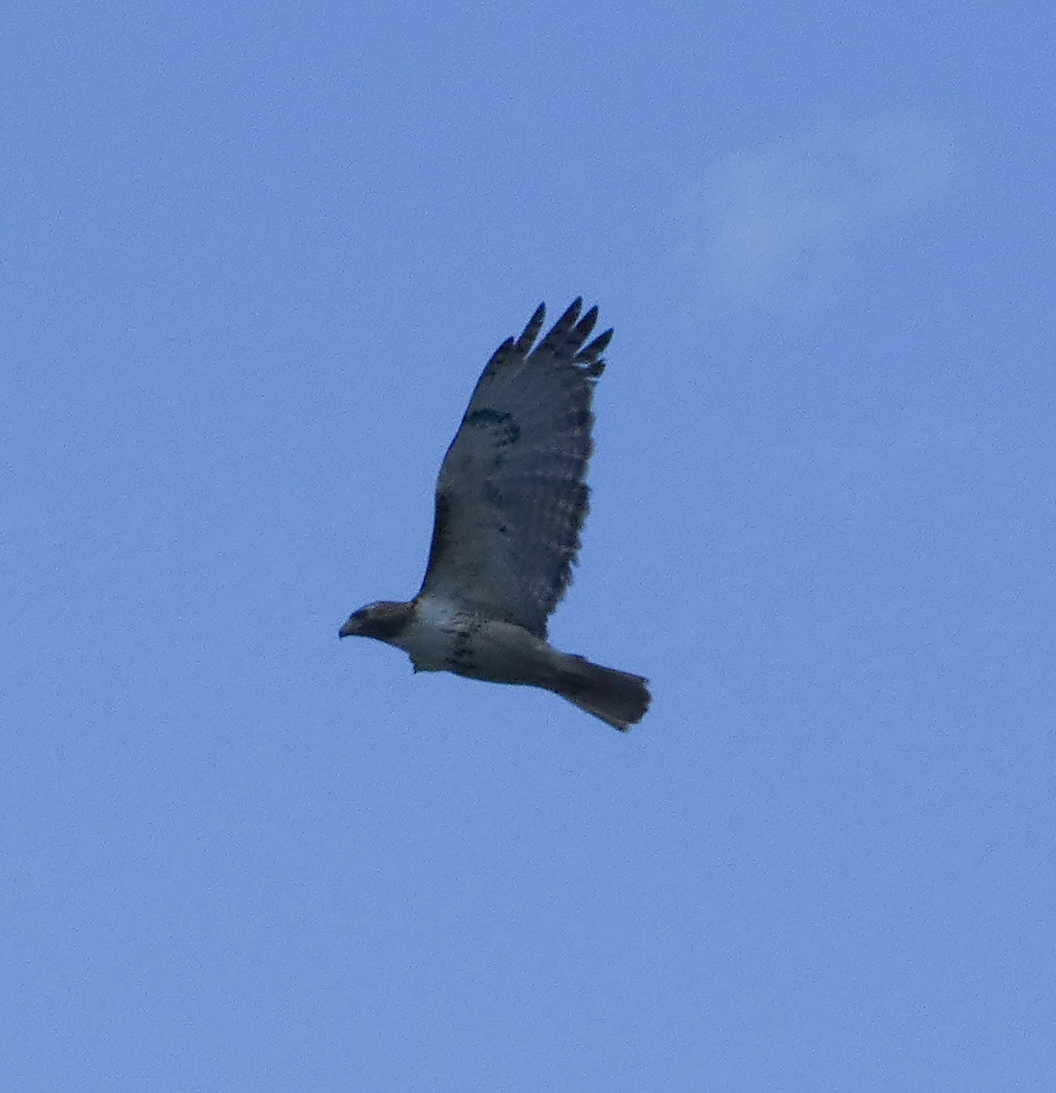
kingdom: Animalia
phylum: Chordata
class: Aves
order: Accipitriformes
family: Accipitridae
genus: Buteo
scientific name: Buteo jamaicensis
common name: Red-tailed hawk
